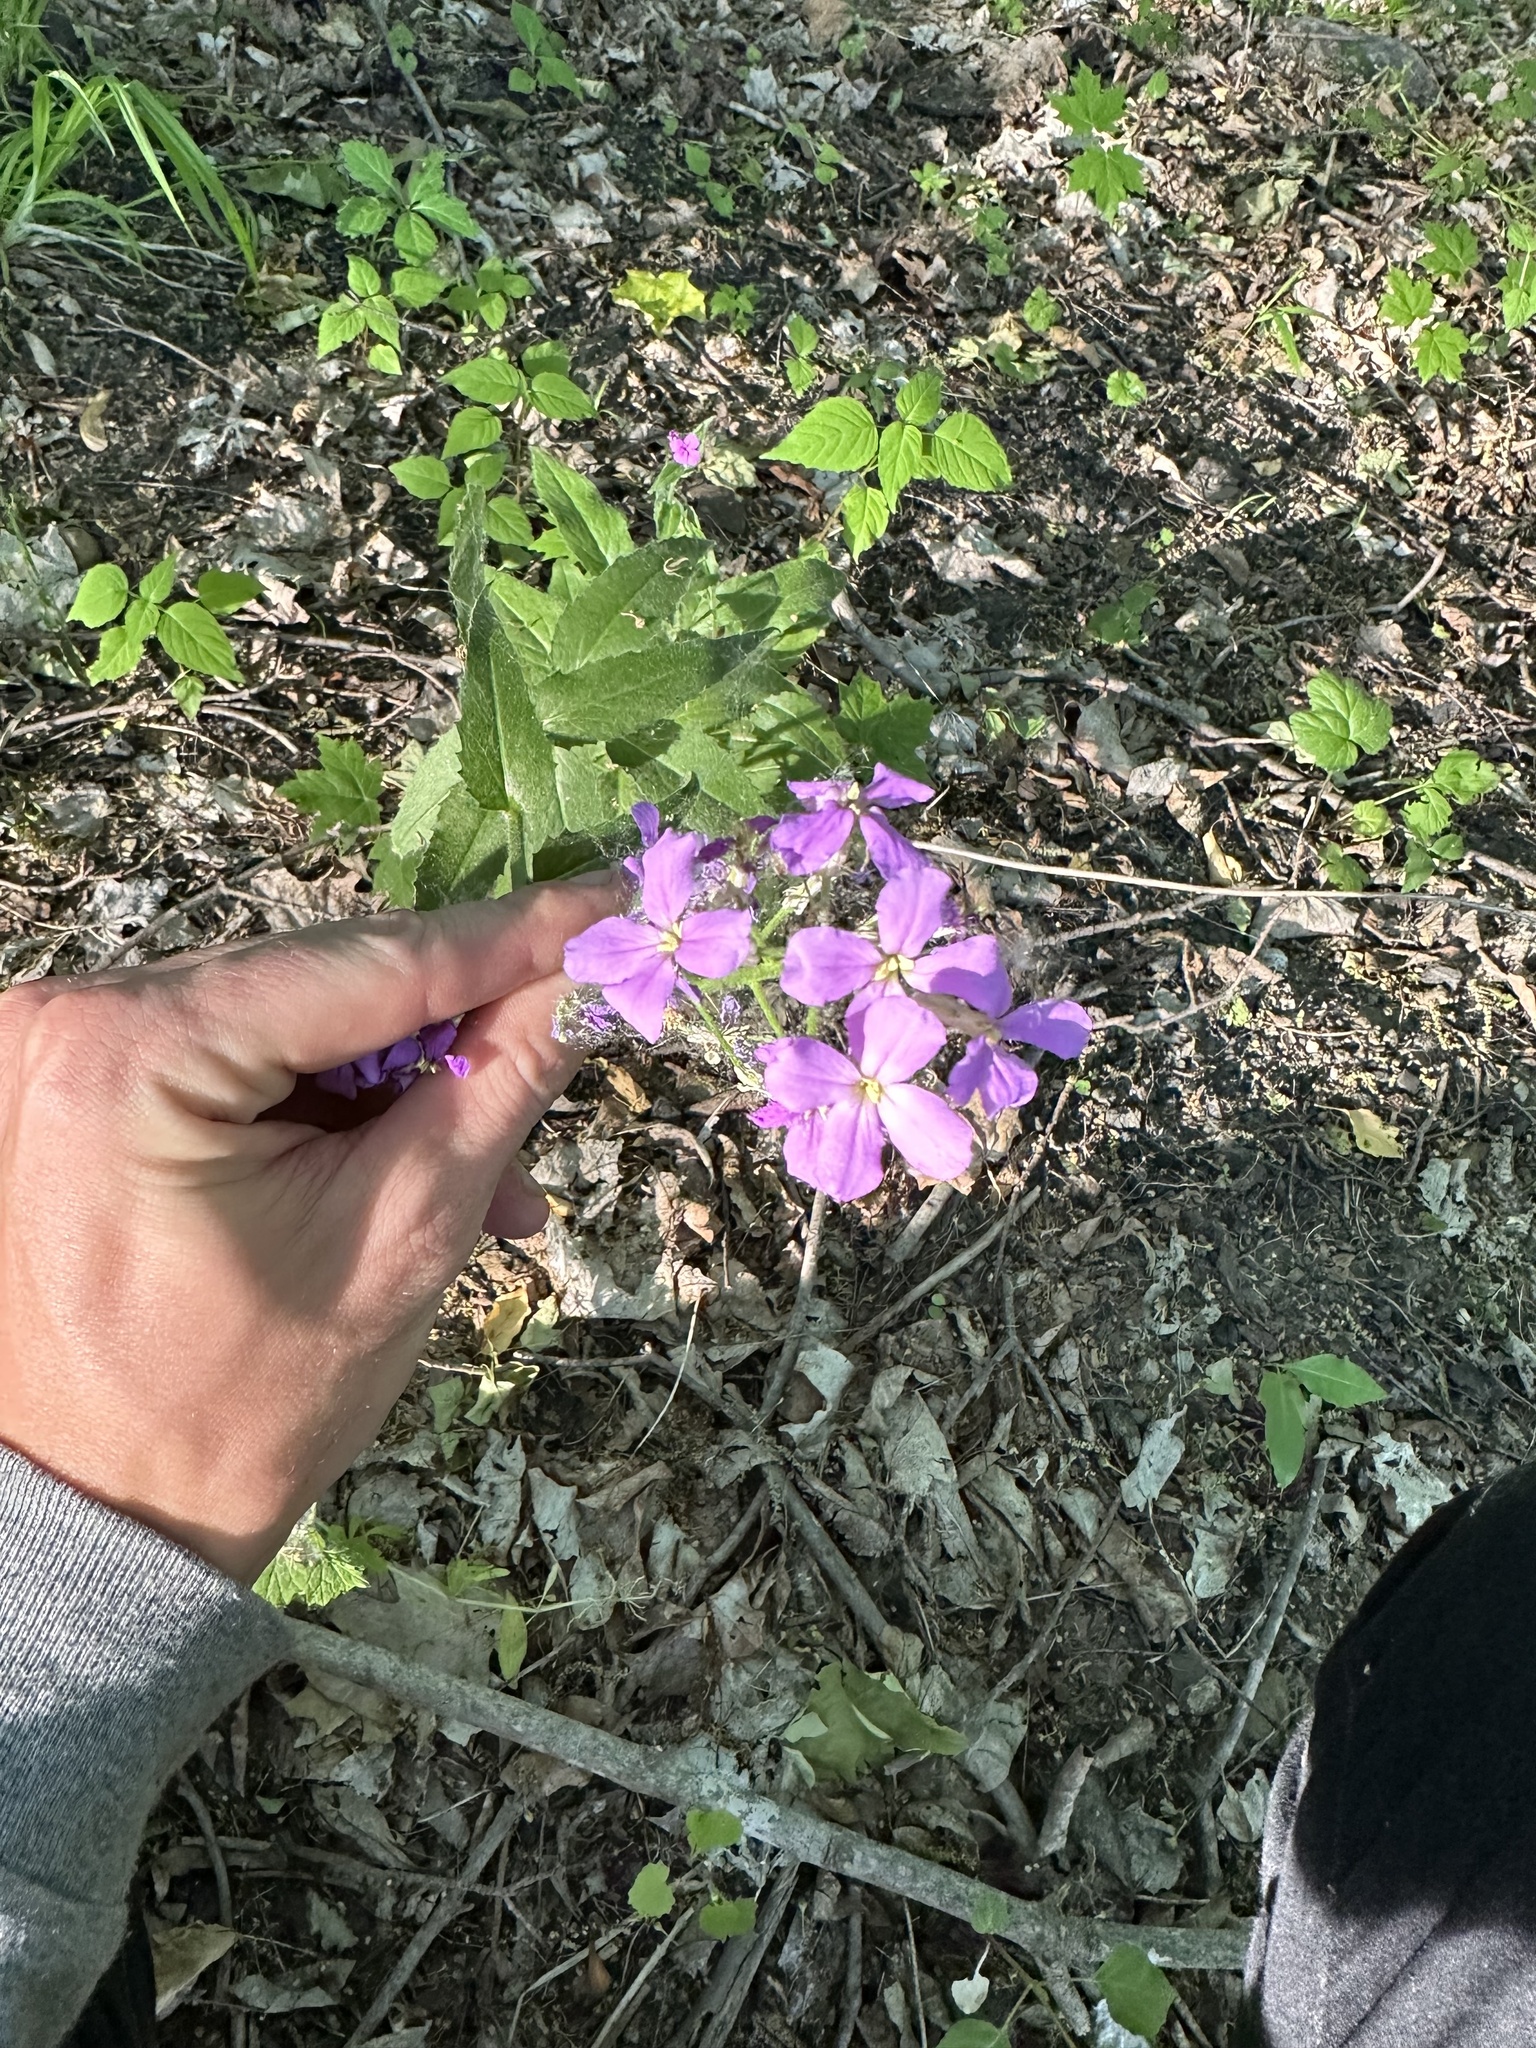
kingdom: Plantae
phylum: Tracheophyta
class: Magnoliopsida
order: Brassicales
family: Brassicaceae
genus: Hesperis
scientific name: Hesperis matronalis
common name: Dame's-violet
